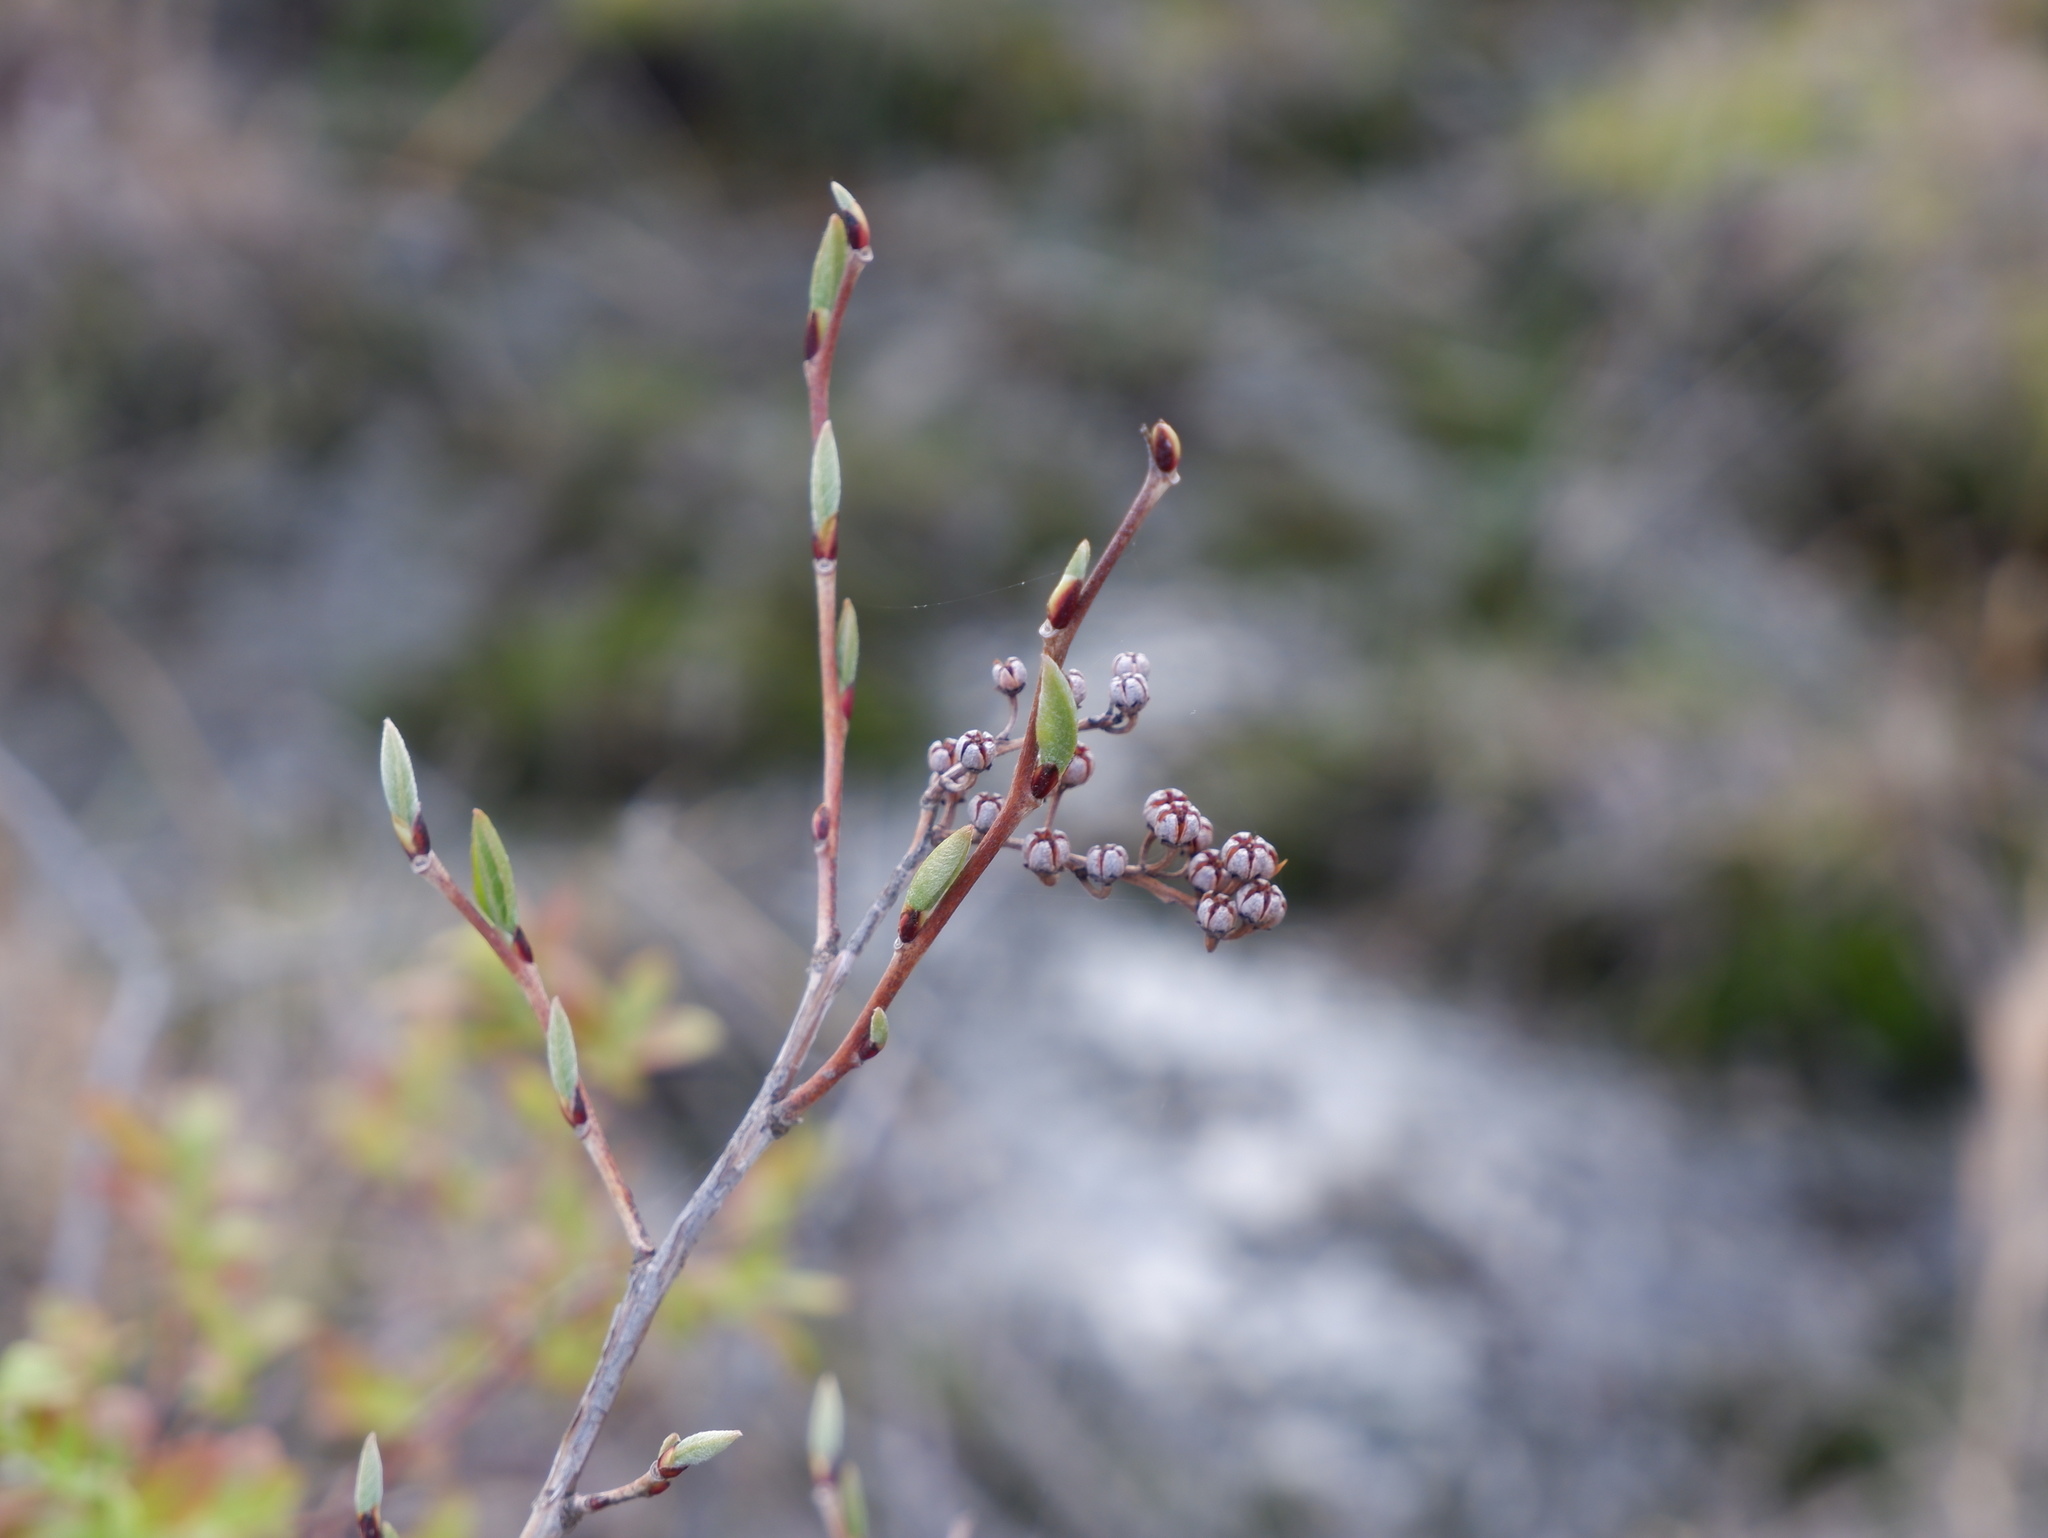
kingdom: Plantae
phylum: Tracheophyta
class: Magnoliopsida
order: Ericales
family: Ericaceae
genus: Lyonia
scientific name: Lyonia ligustrina
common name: Maleberry
